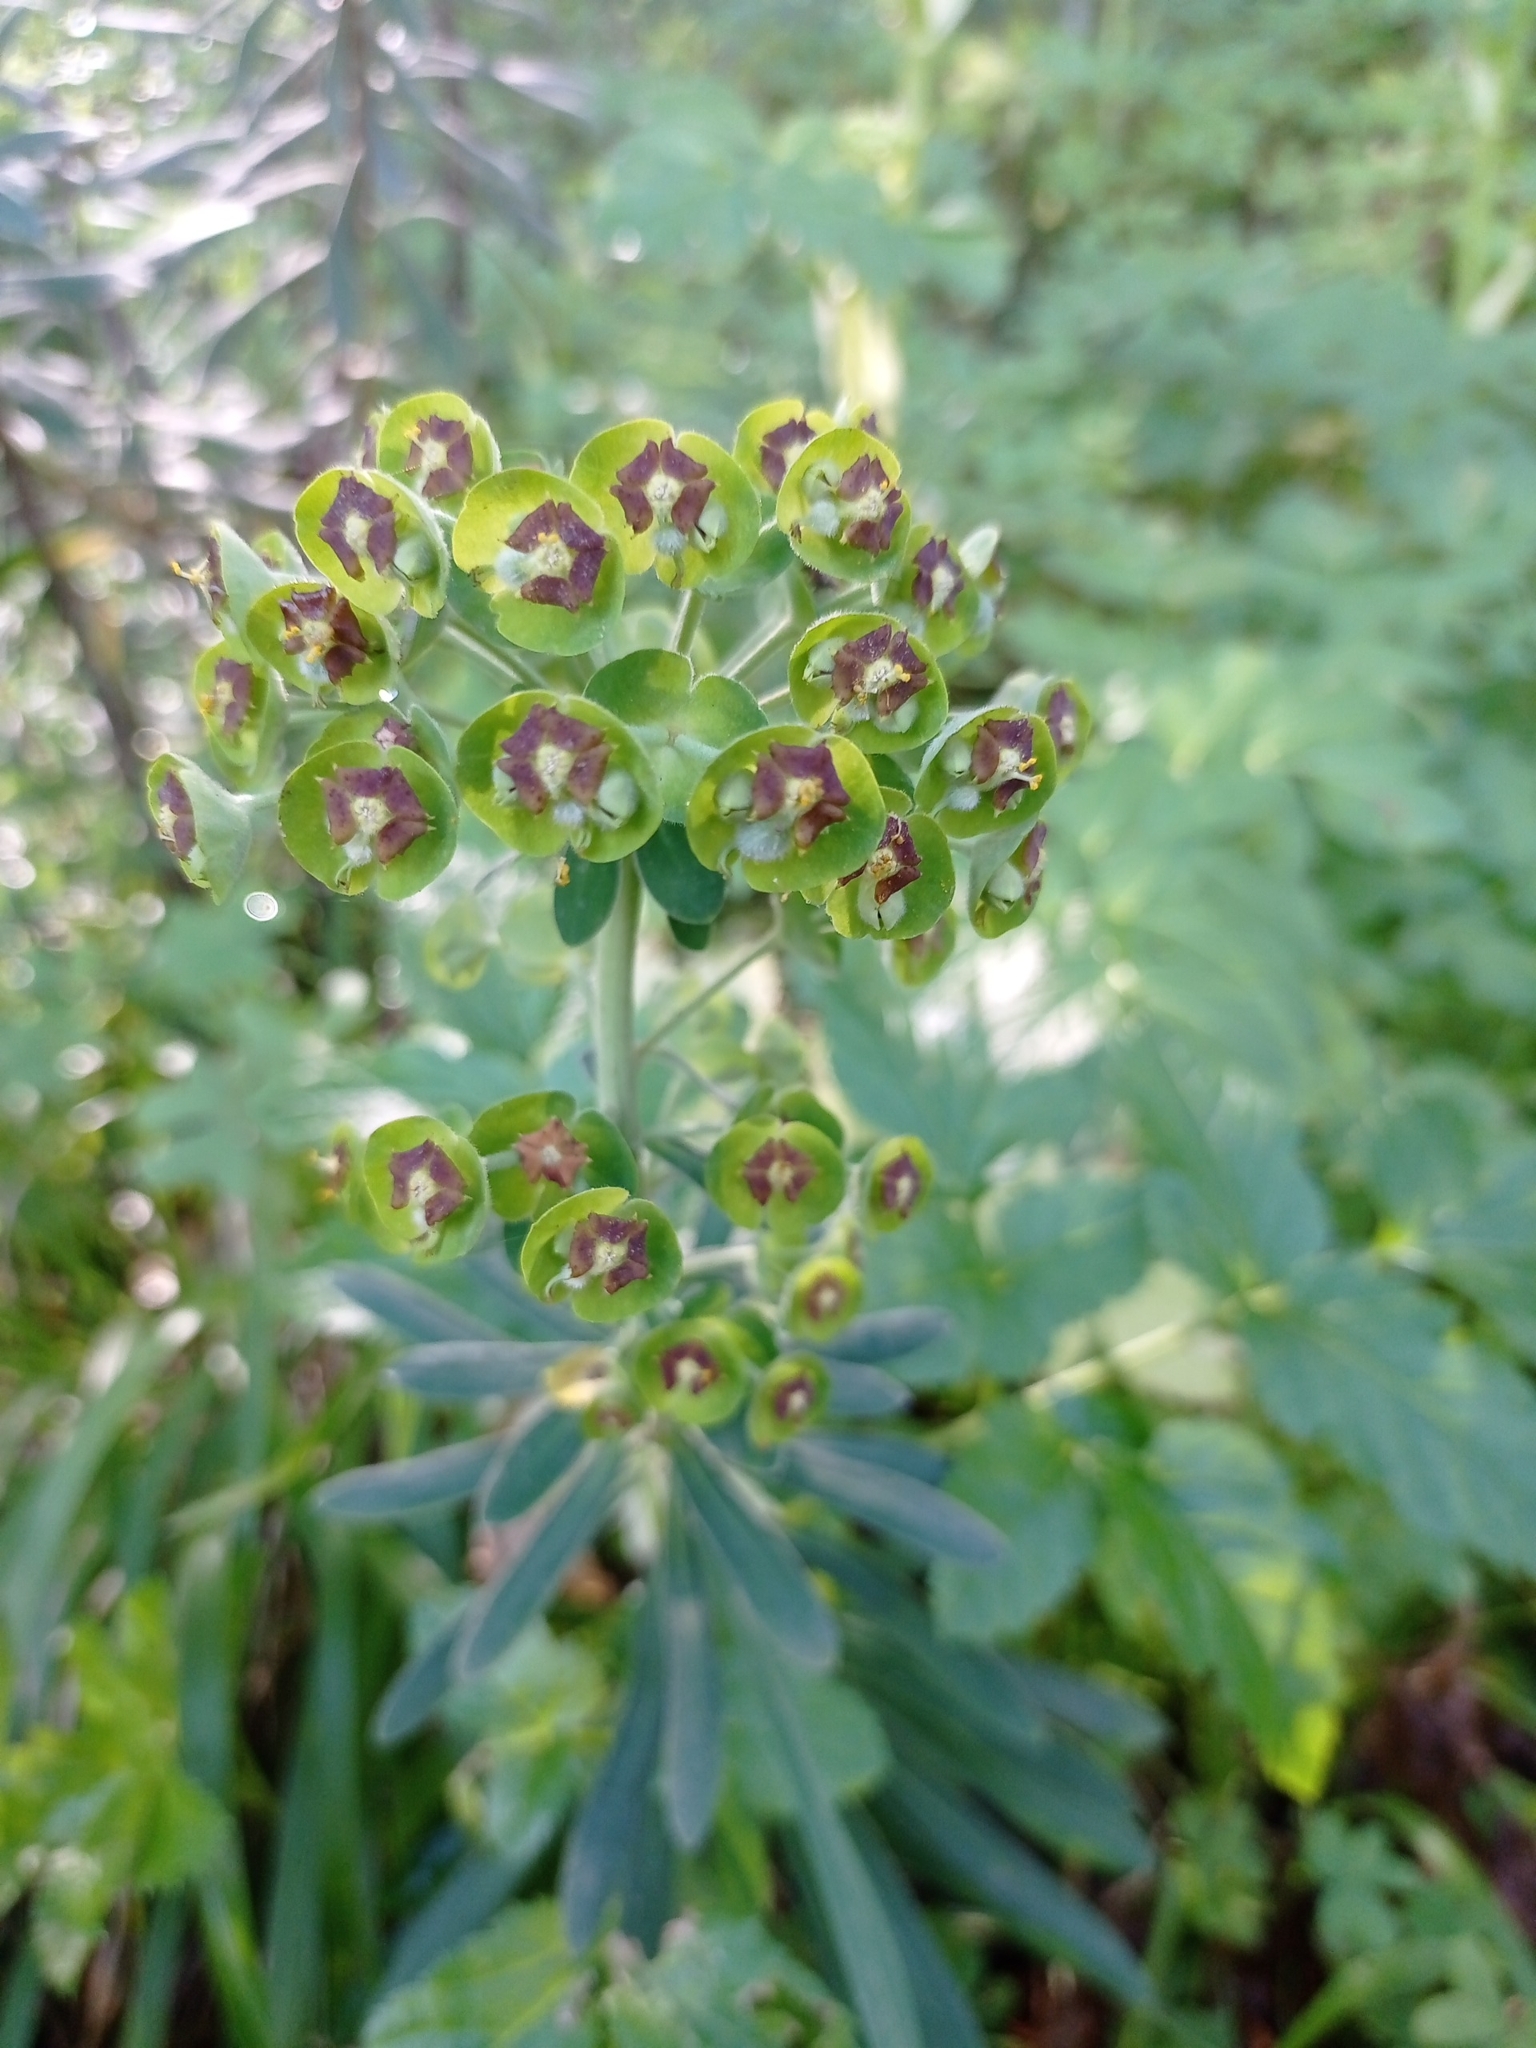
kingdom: Plantae
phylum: Tracheophyta
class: Magnoliopsida
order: Malpighiales
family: Euphorbiaceae
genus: Euphorbia
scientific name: Euphorbia characias
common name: Mediterranean spurge
